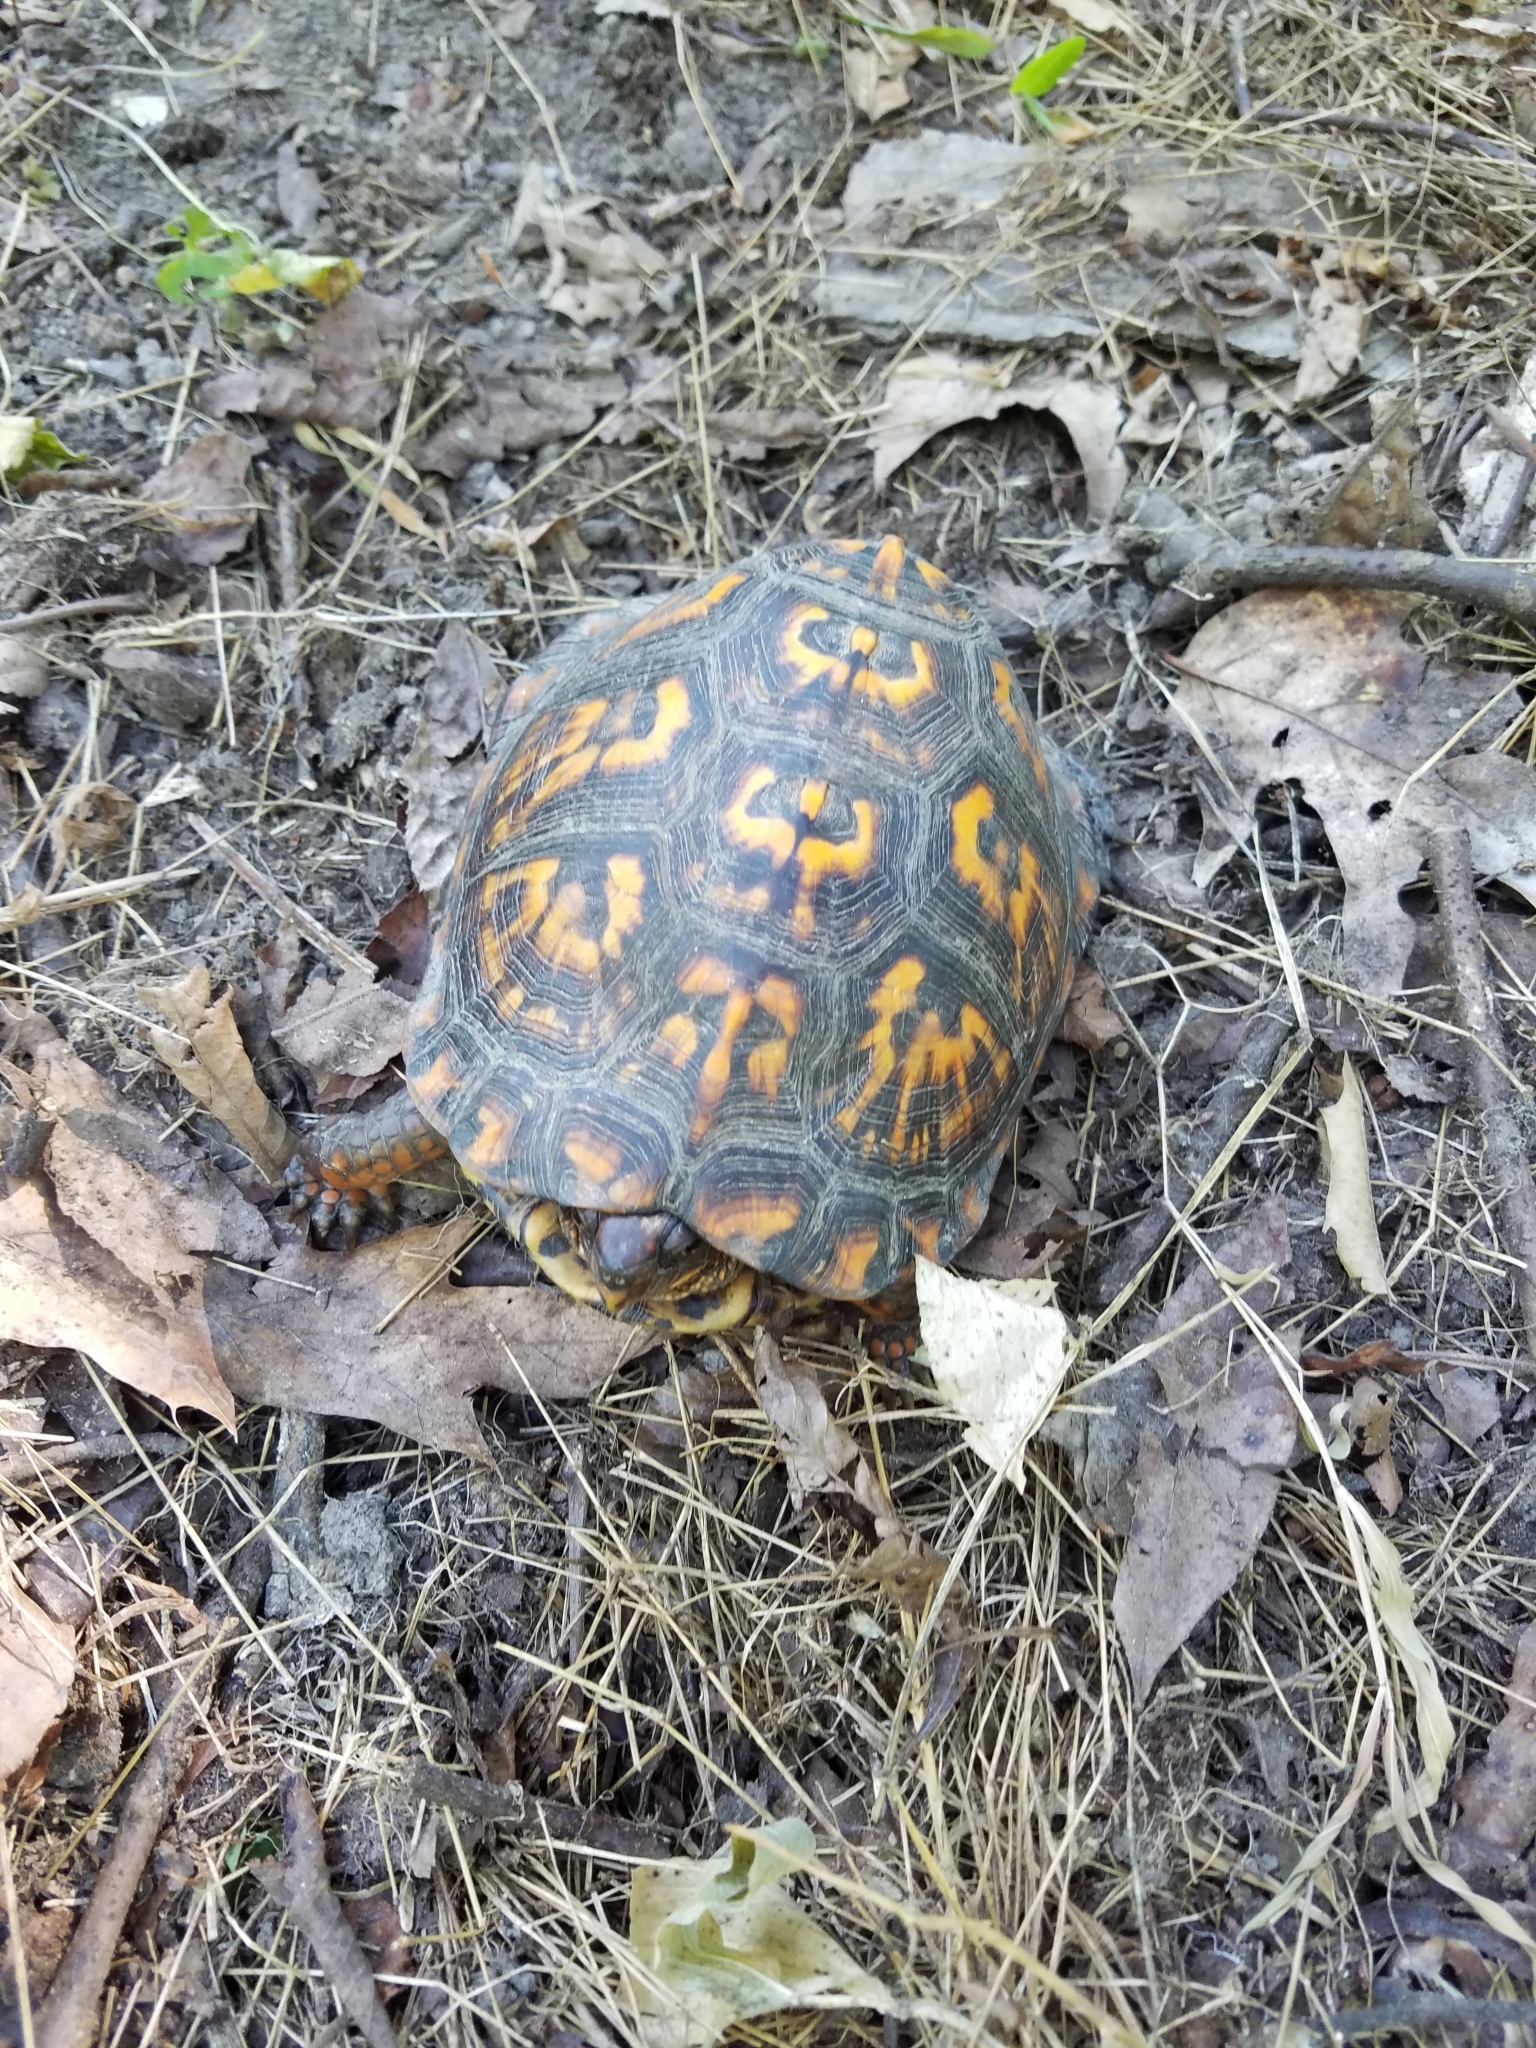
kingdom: Animalia
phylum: Chordata
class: Testudines
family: Emydidae
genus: Terrapene
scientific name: Terrapene carolina
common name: Common box turtle
